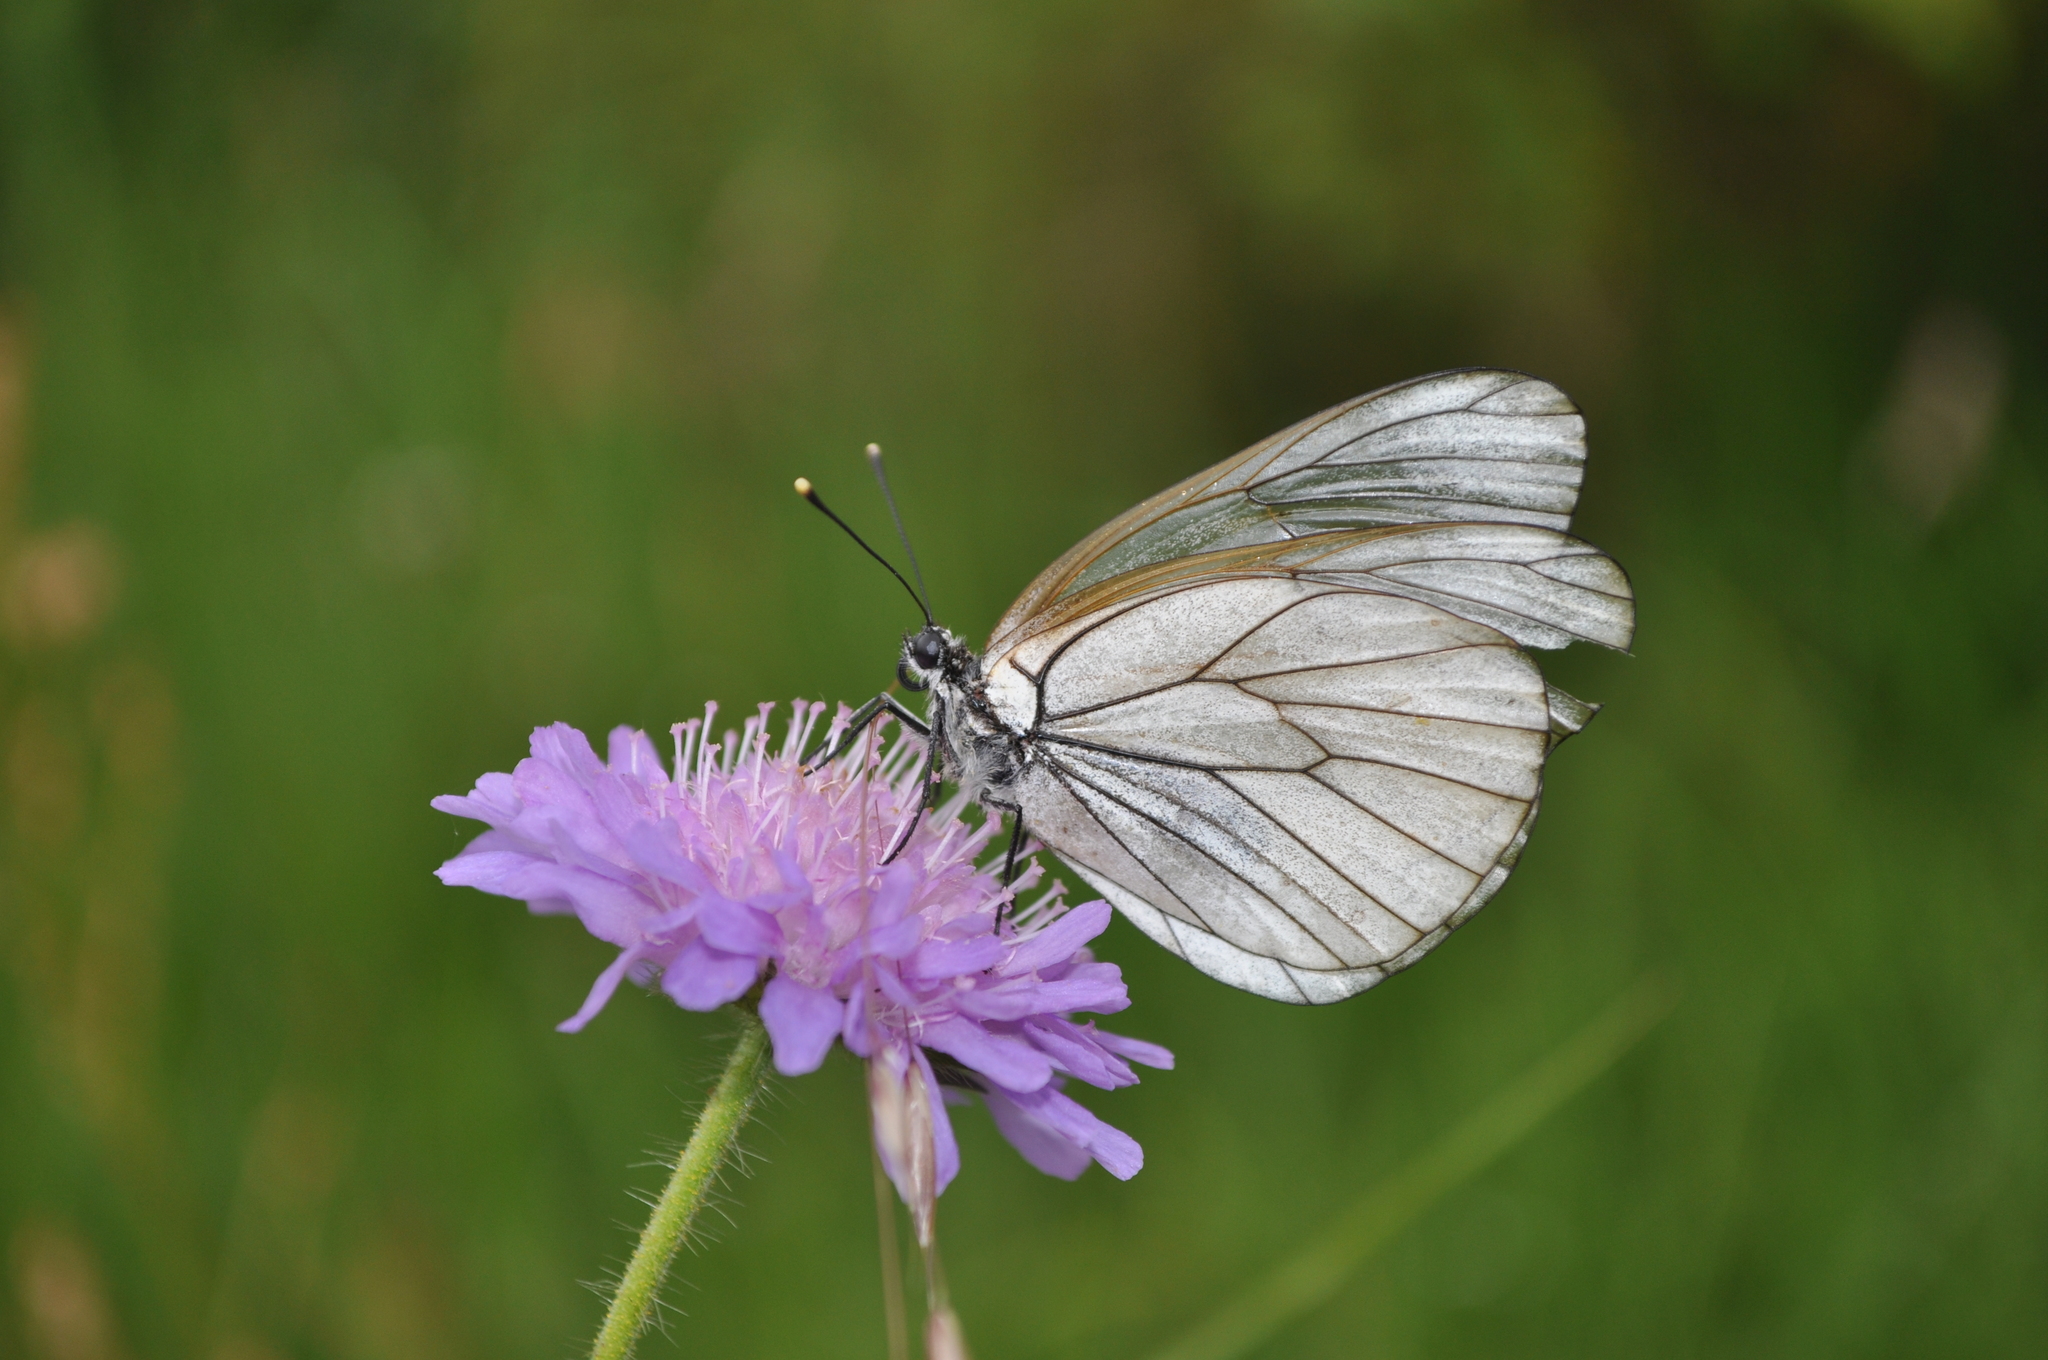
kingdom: Animalia
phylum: Arthropoda
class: Insecta
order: Lepidoptera
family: Pieridae
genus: Aporia
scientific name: Aporia crataegi
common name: Black-veined white
